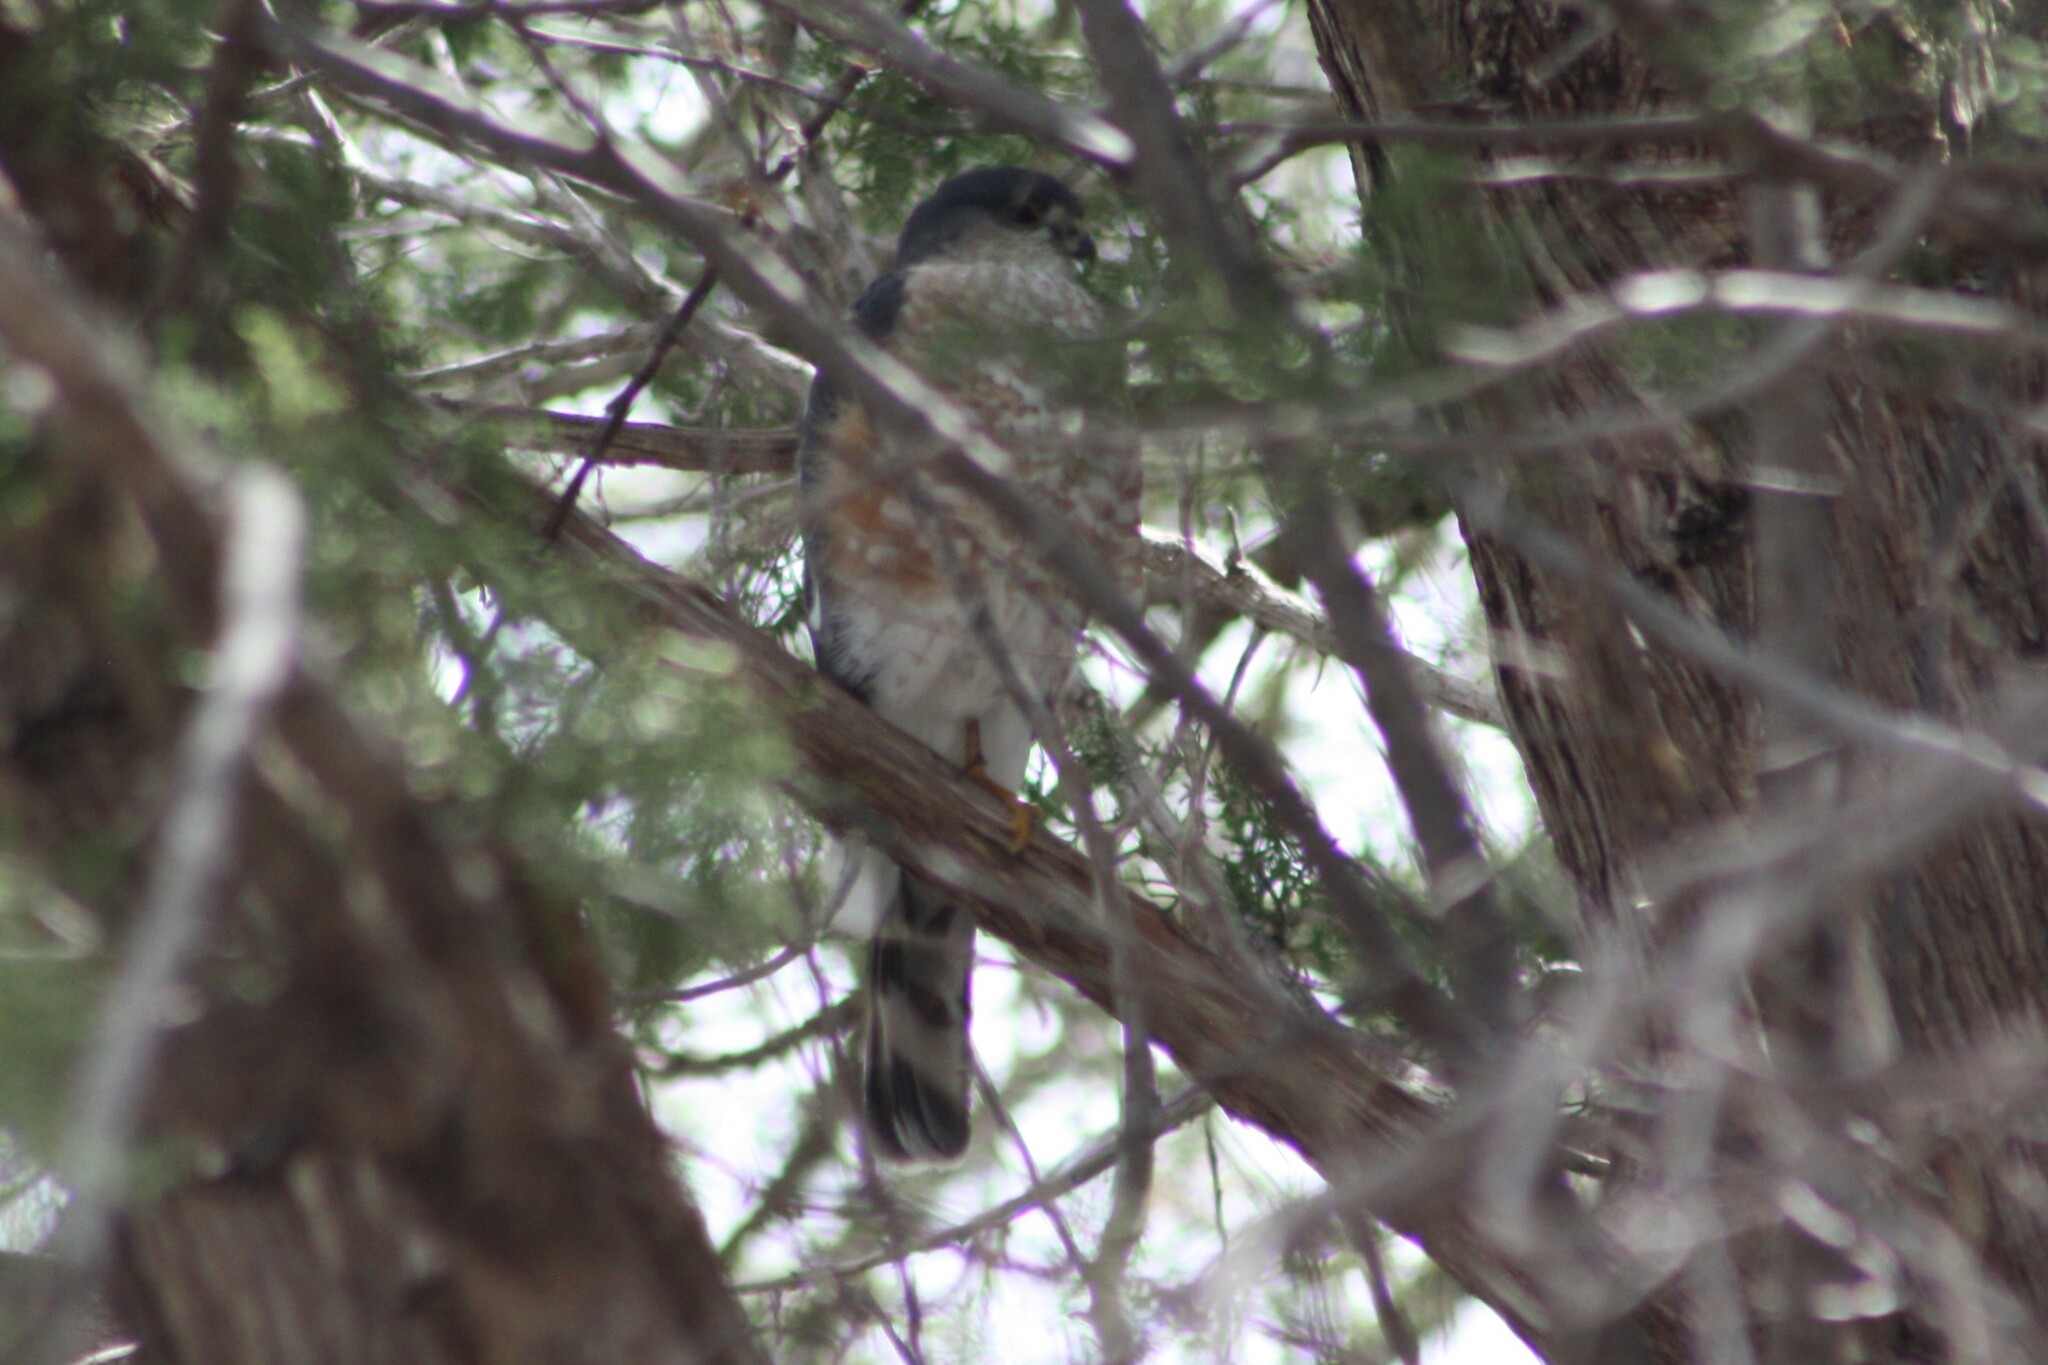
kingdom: Animalia
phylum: Chordata
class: Aves
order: Accipitriformes
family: Accipitridae
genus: Accipiter
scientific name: Accipiter striatus
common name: Sharp-shinned hawk
